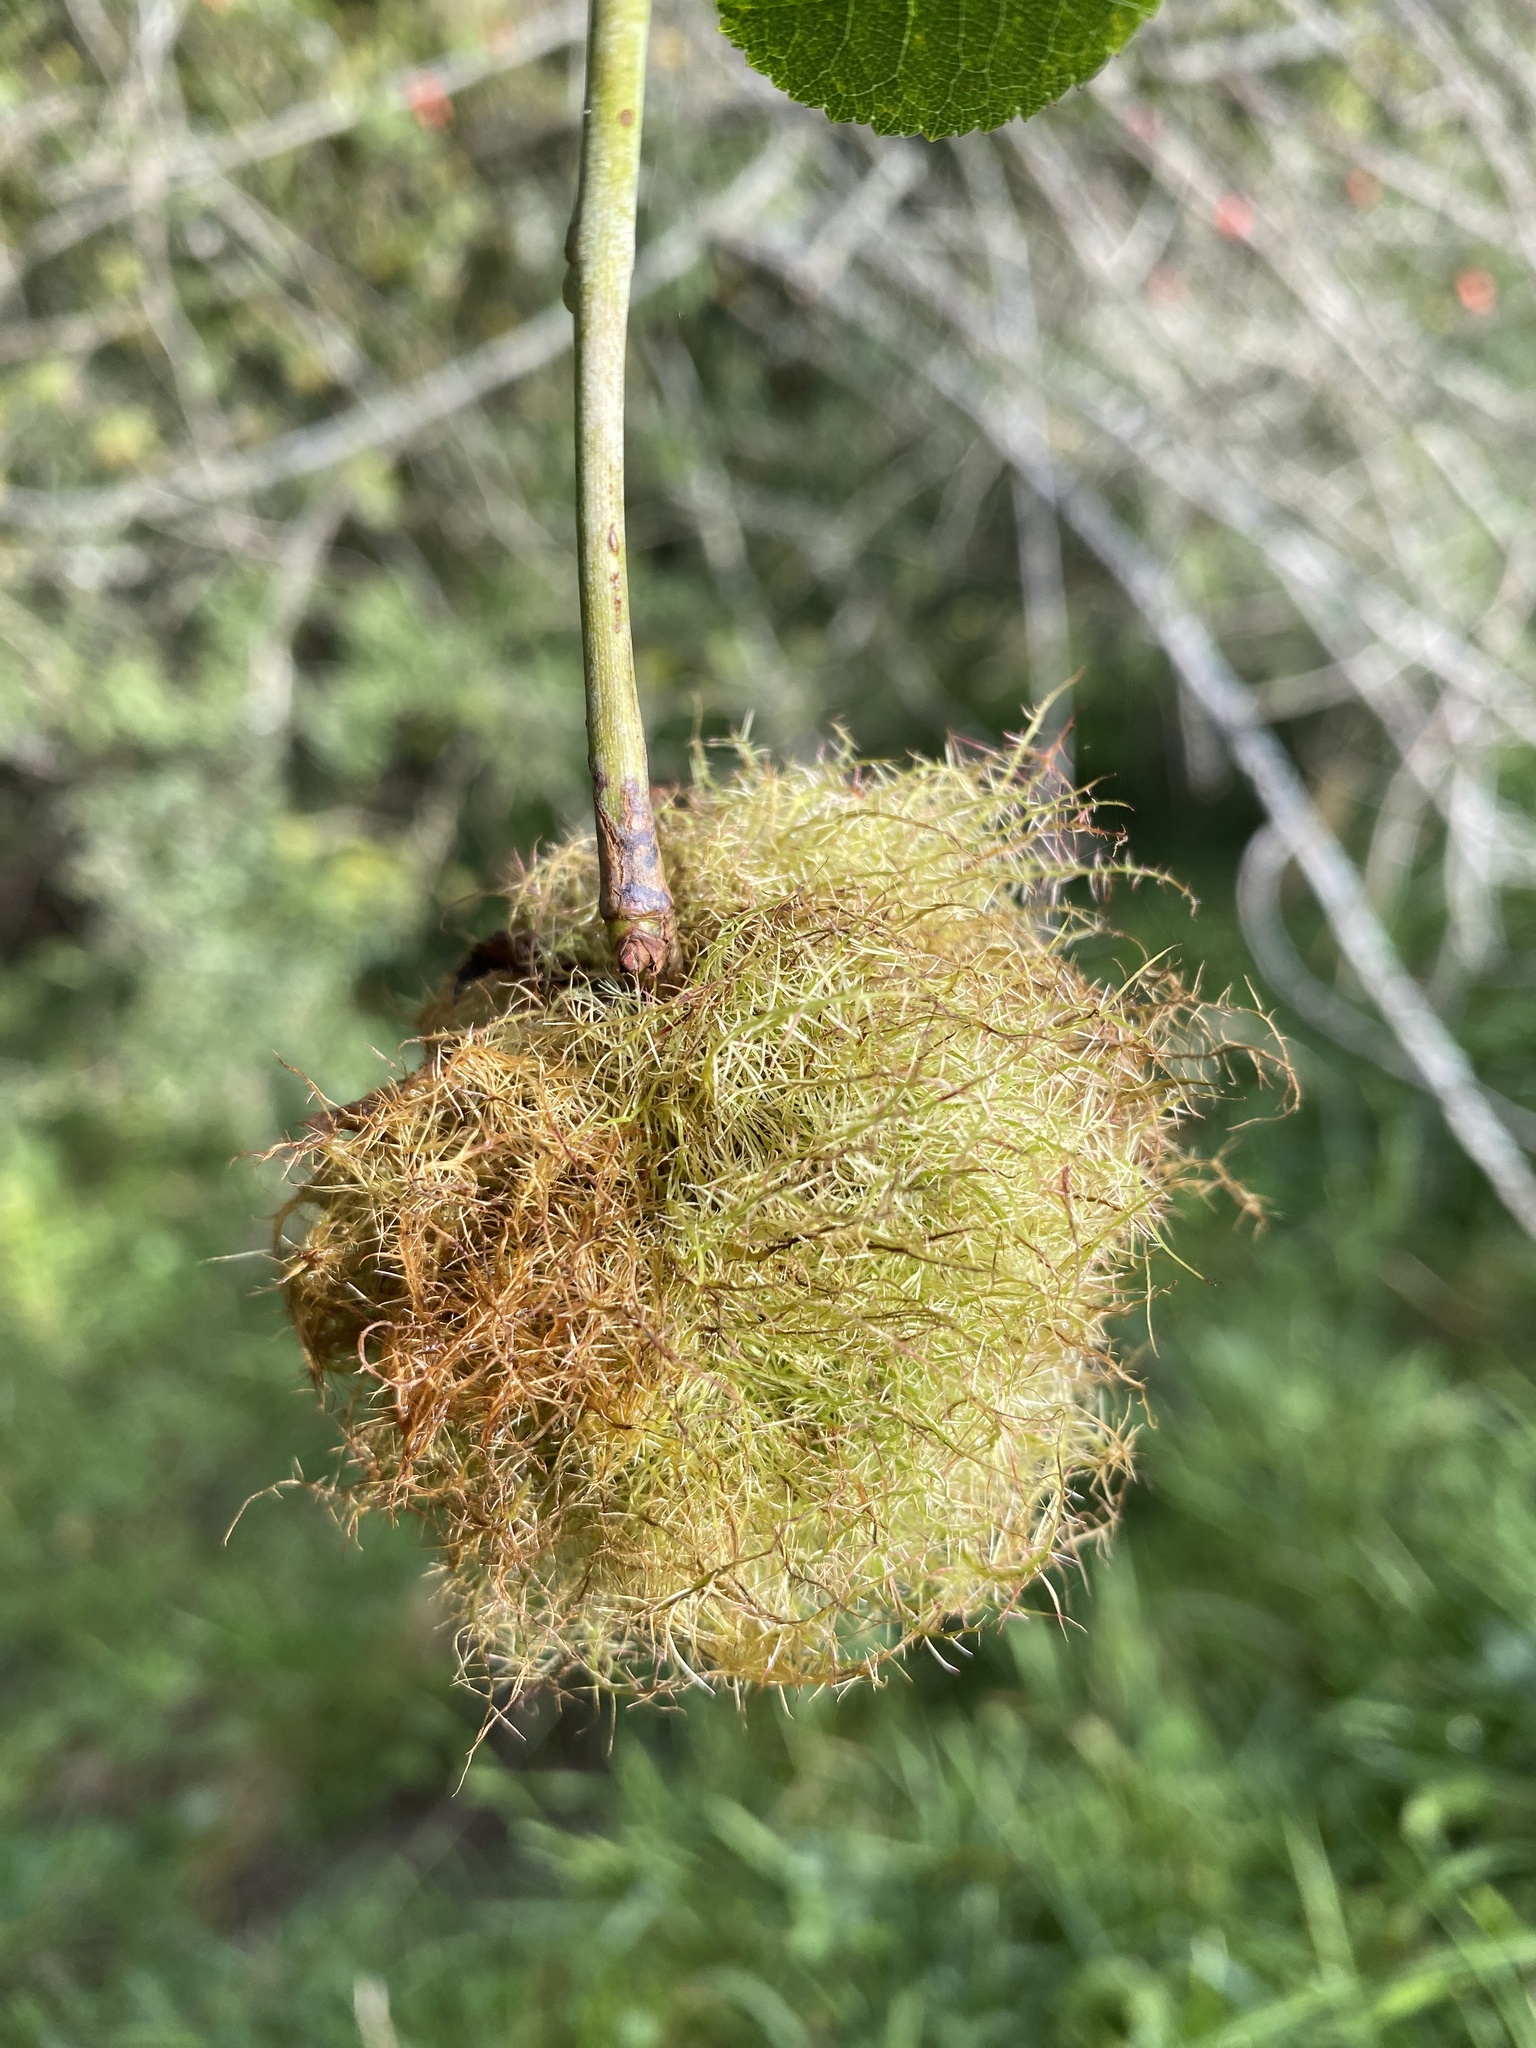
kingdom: Animalia
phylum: Arthropoda
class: Insecta
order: Hymenoptera
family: Cynipidae
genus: Diplolepis
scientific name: Diplolepis rosae
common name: Bedeguar gall
